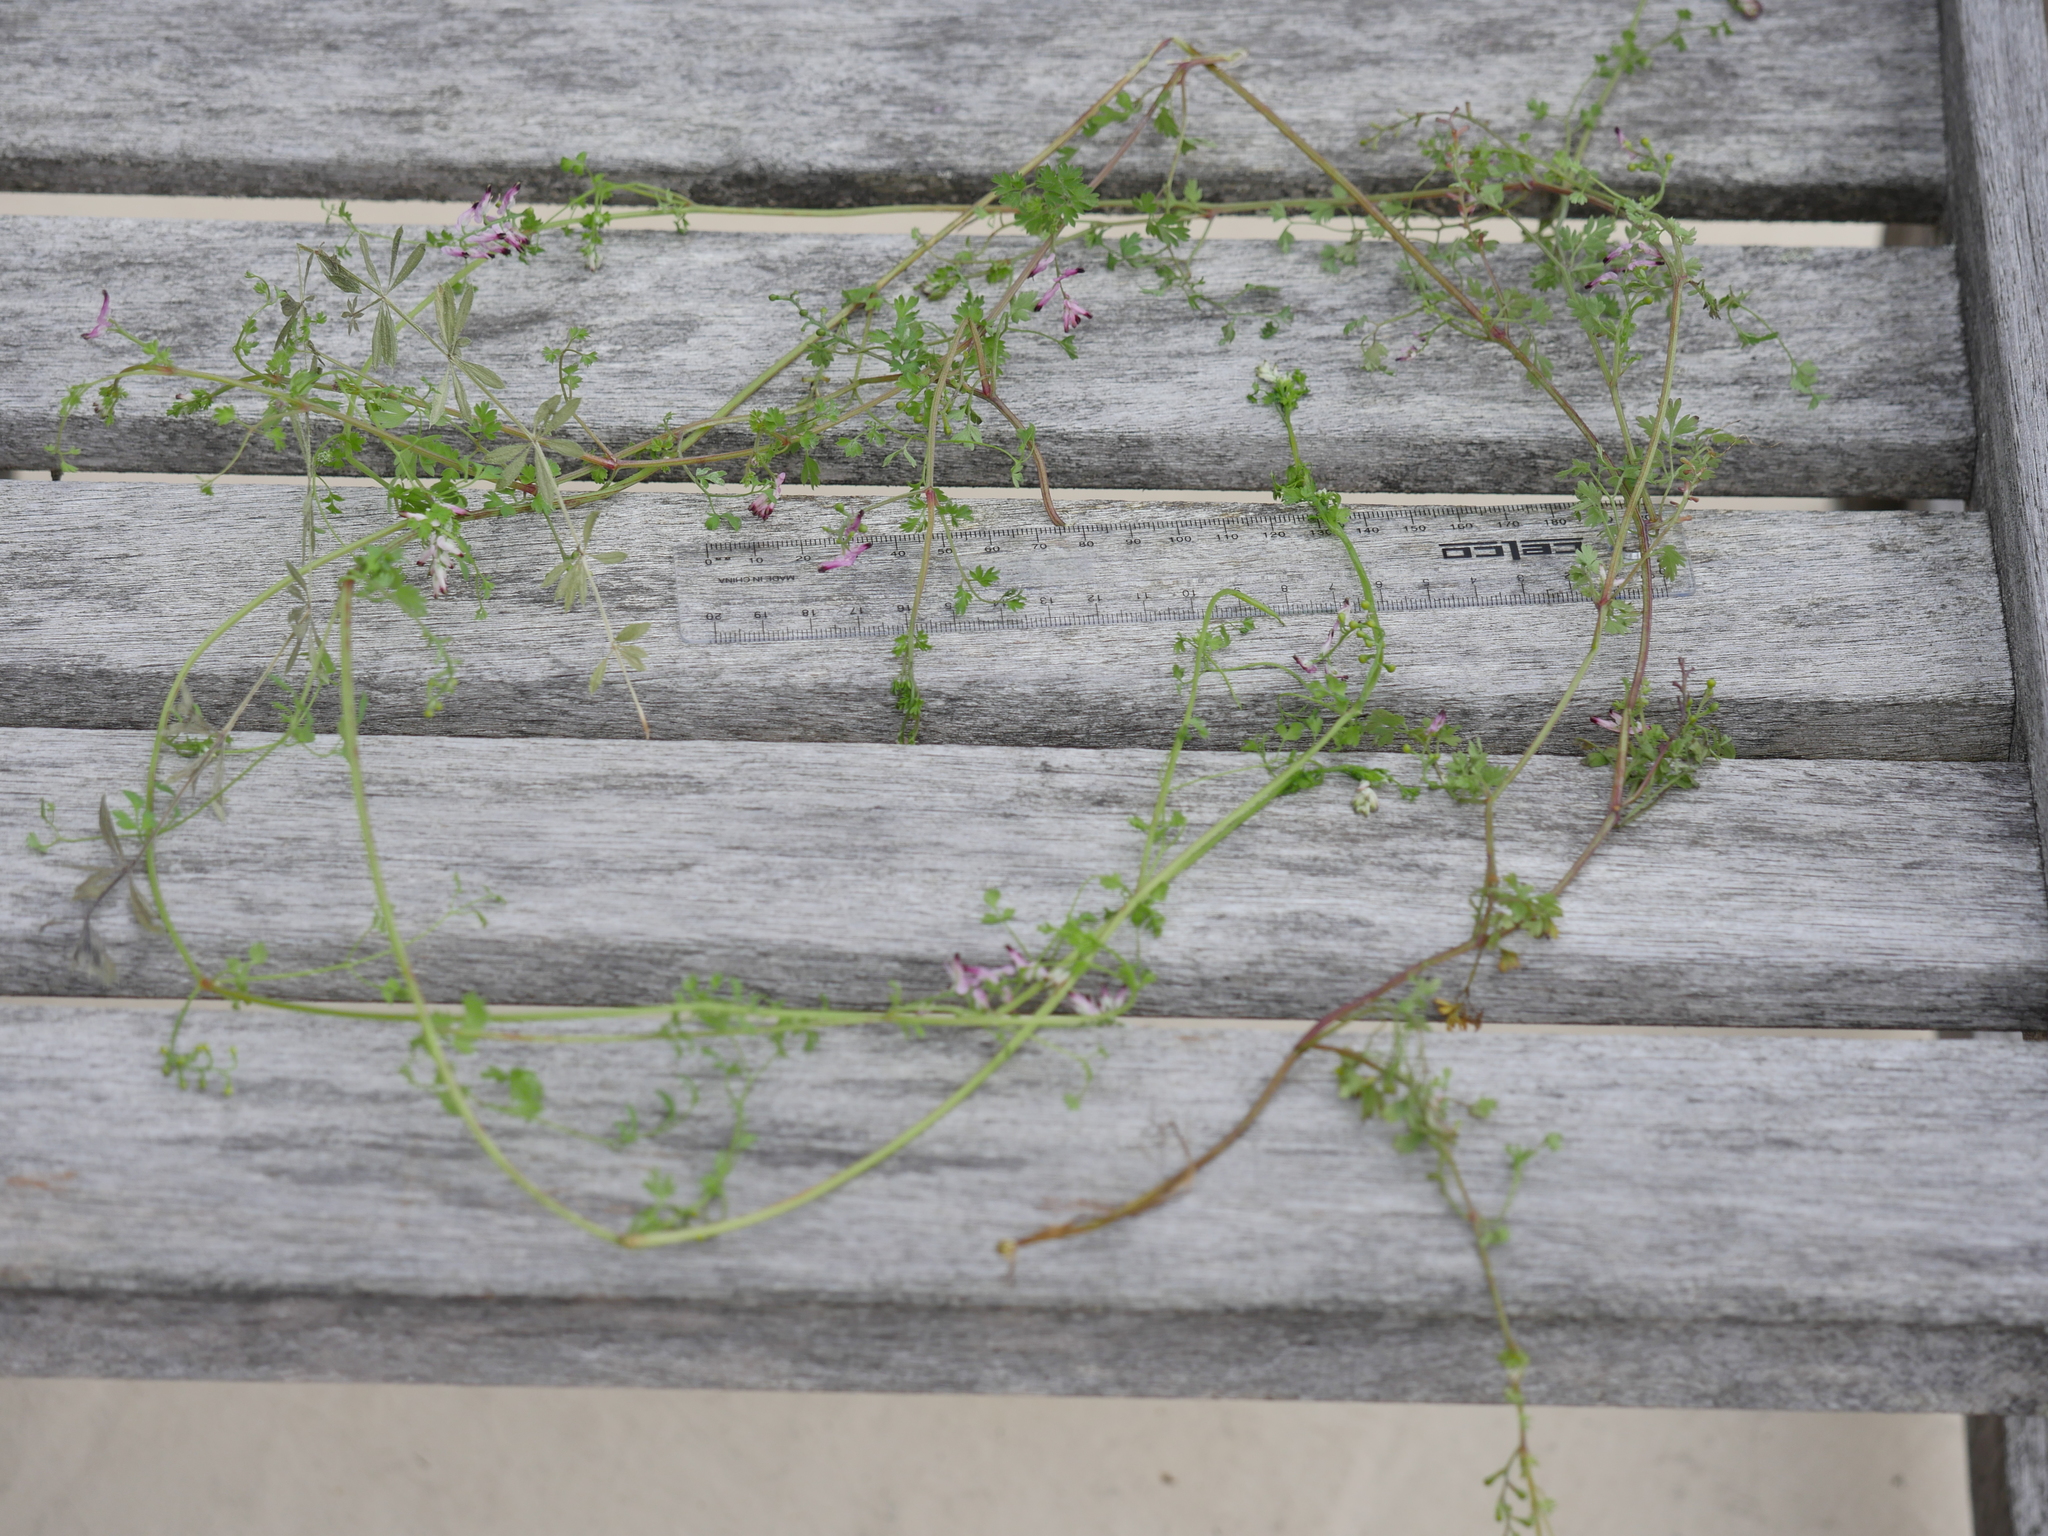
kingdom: Plantae
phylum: Tracheophyta
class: Magnoliopsida
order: Ranunculales
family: Papaveraceae
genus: Fumaria
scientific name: Fumaria muralis
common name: Common ramping-fumitory
